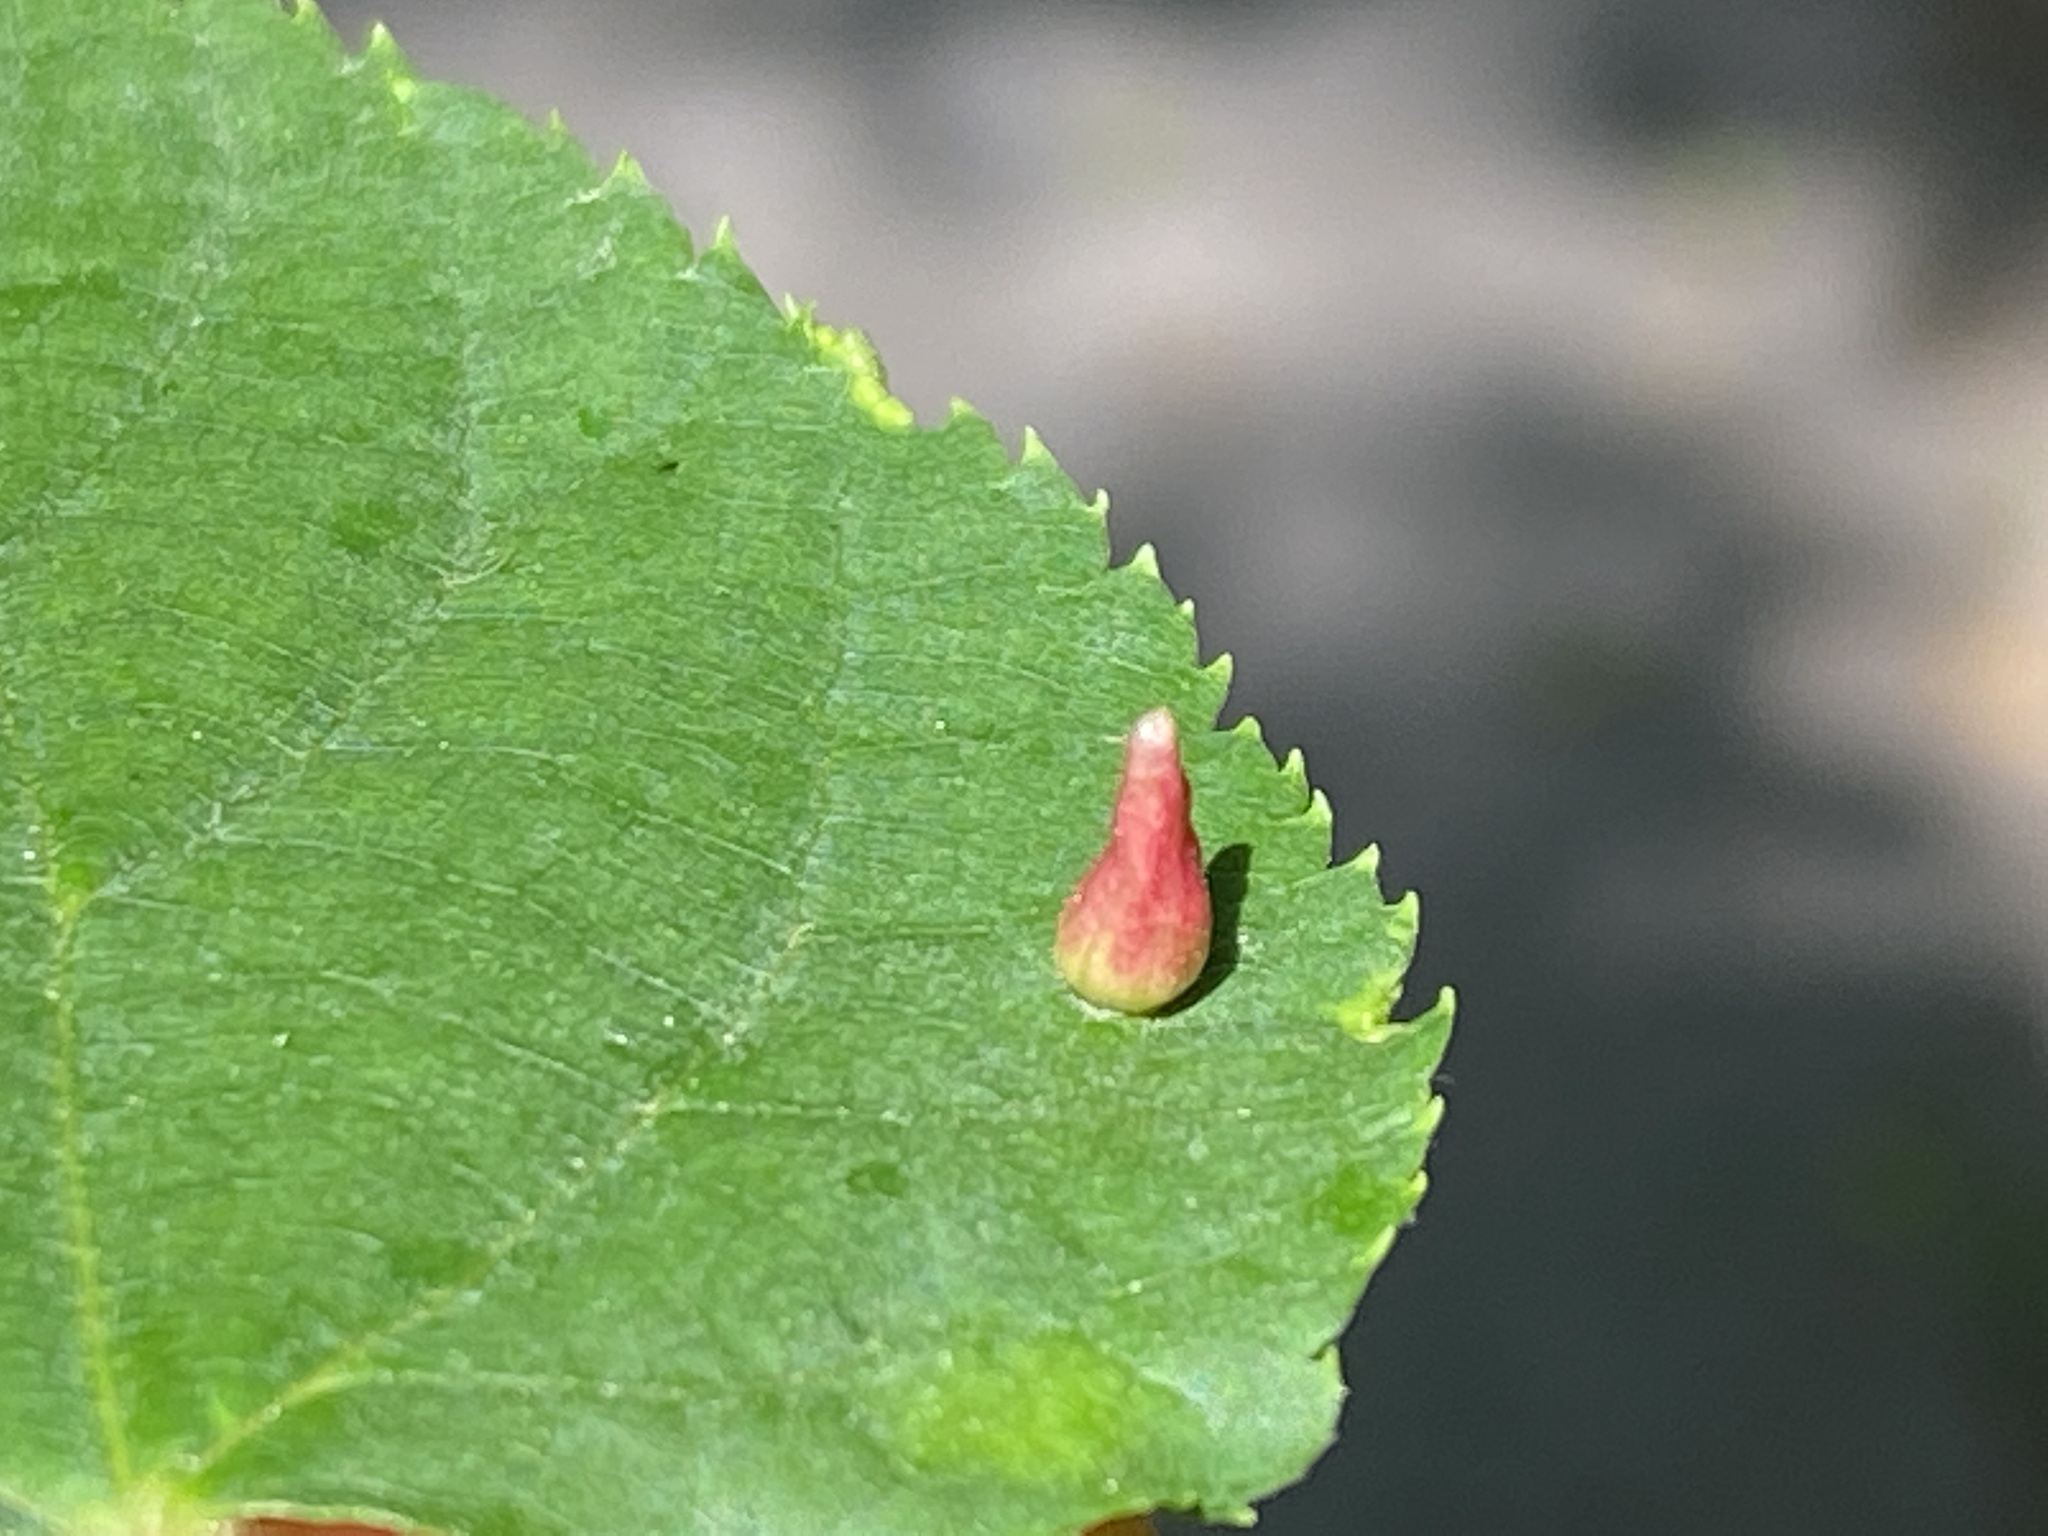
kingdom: Animalia
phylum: Arthropoda
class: Arachnida
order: Trombidiformes
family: Eriophyidae
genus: Eriophyes
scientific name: Eriophyes tiliae
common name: Red nail gall mite
